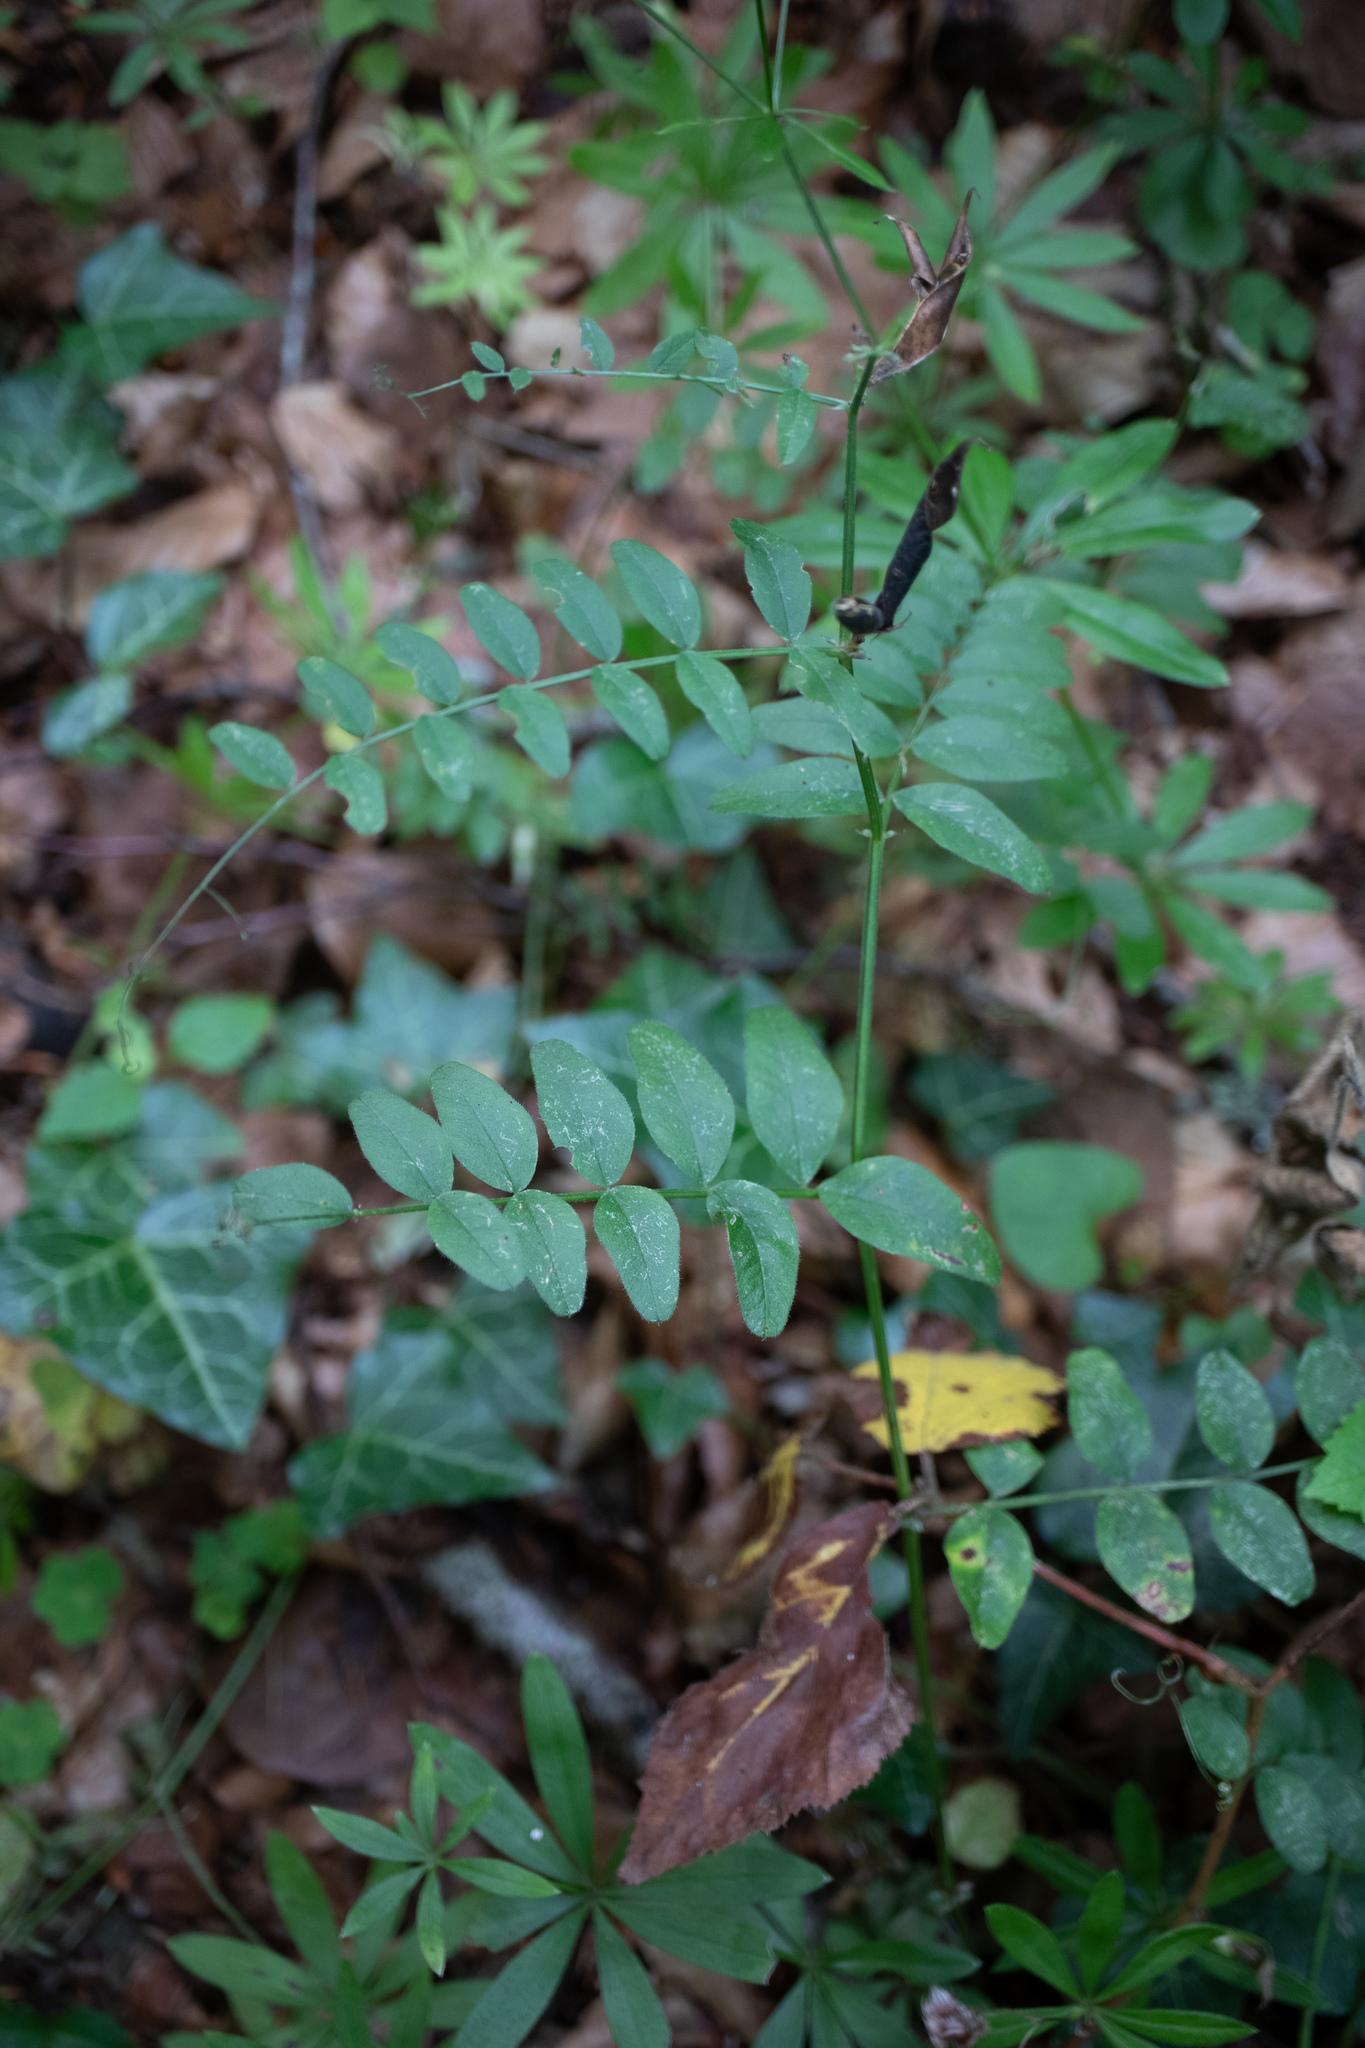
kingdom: Plantae
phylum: Tracheophyta
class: Magnoliopsida
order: Fabales
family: Fabaceae
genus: Vicia
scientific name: Vicia sepium
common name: Bush vetch
